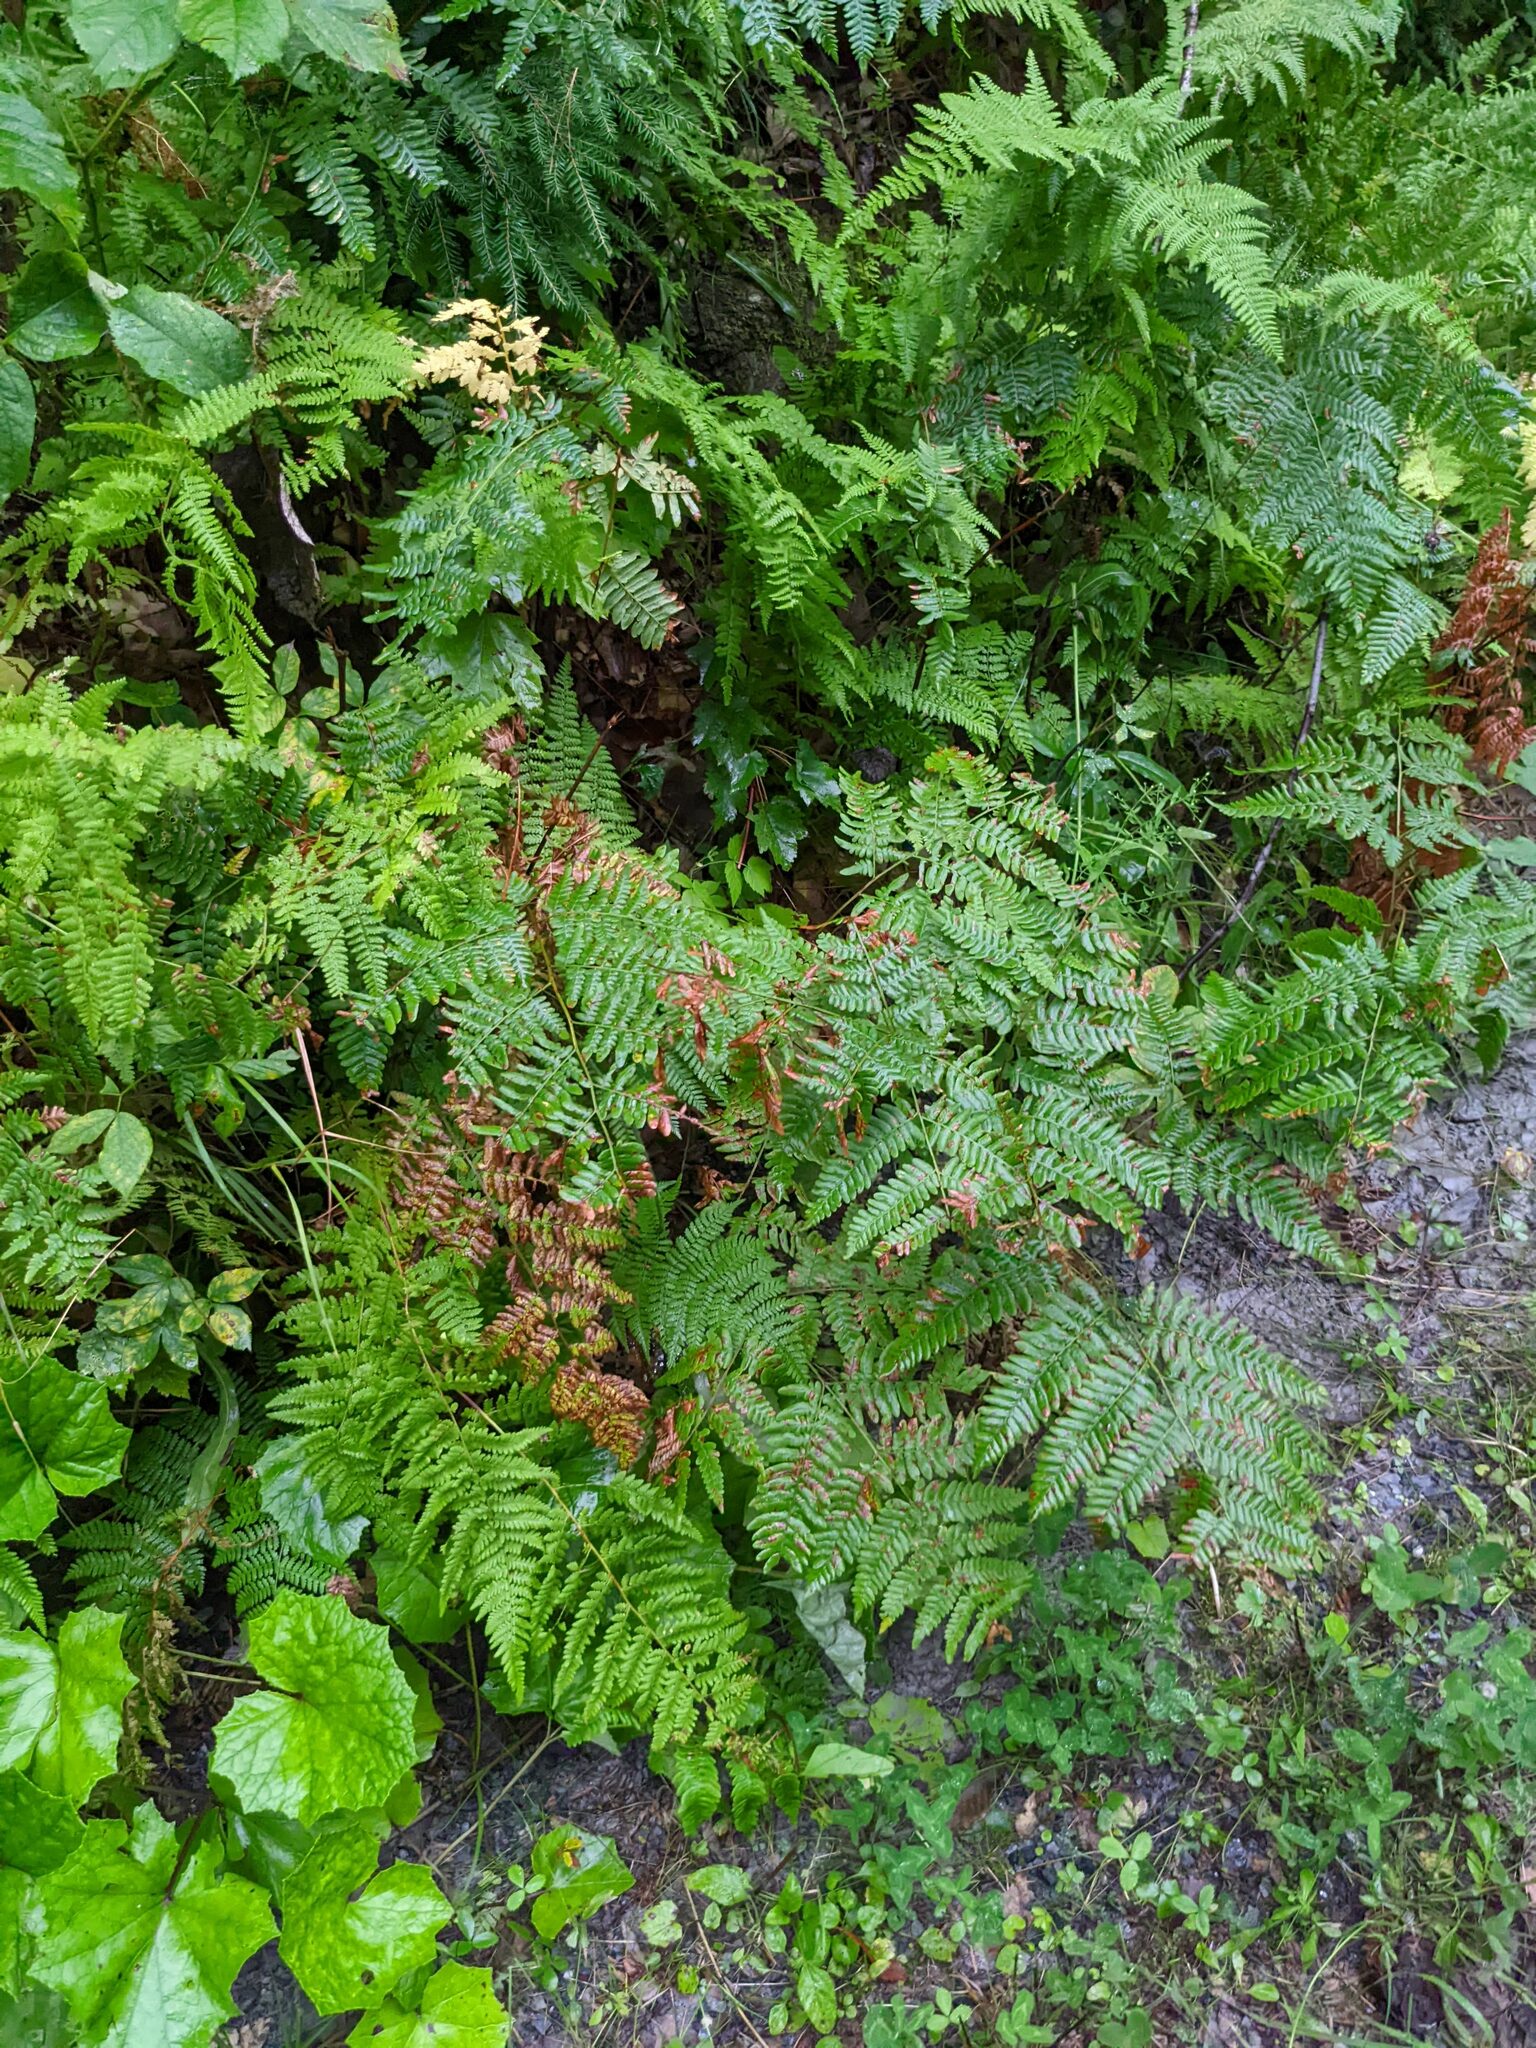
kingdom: Plantae
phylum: Tracheophyta
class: Polypodiopsida
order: Polypodiales
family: Dennstaedtiaceae
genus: Pteridium
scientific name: Pteridium aquilinum
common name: Bracken
